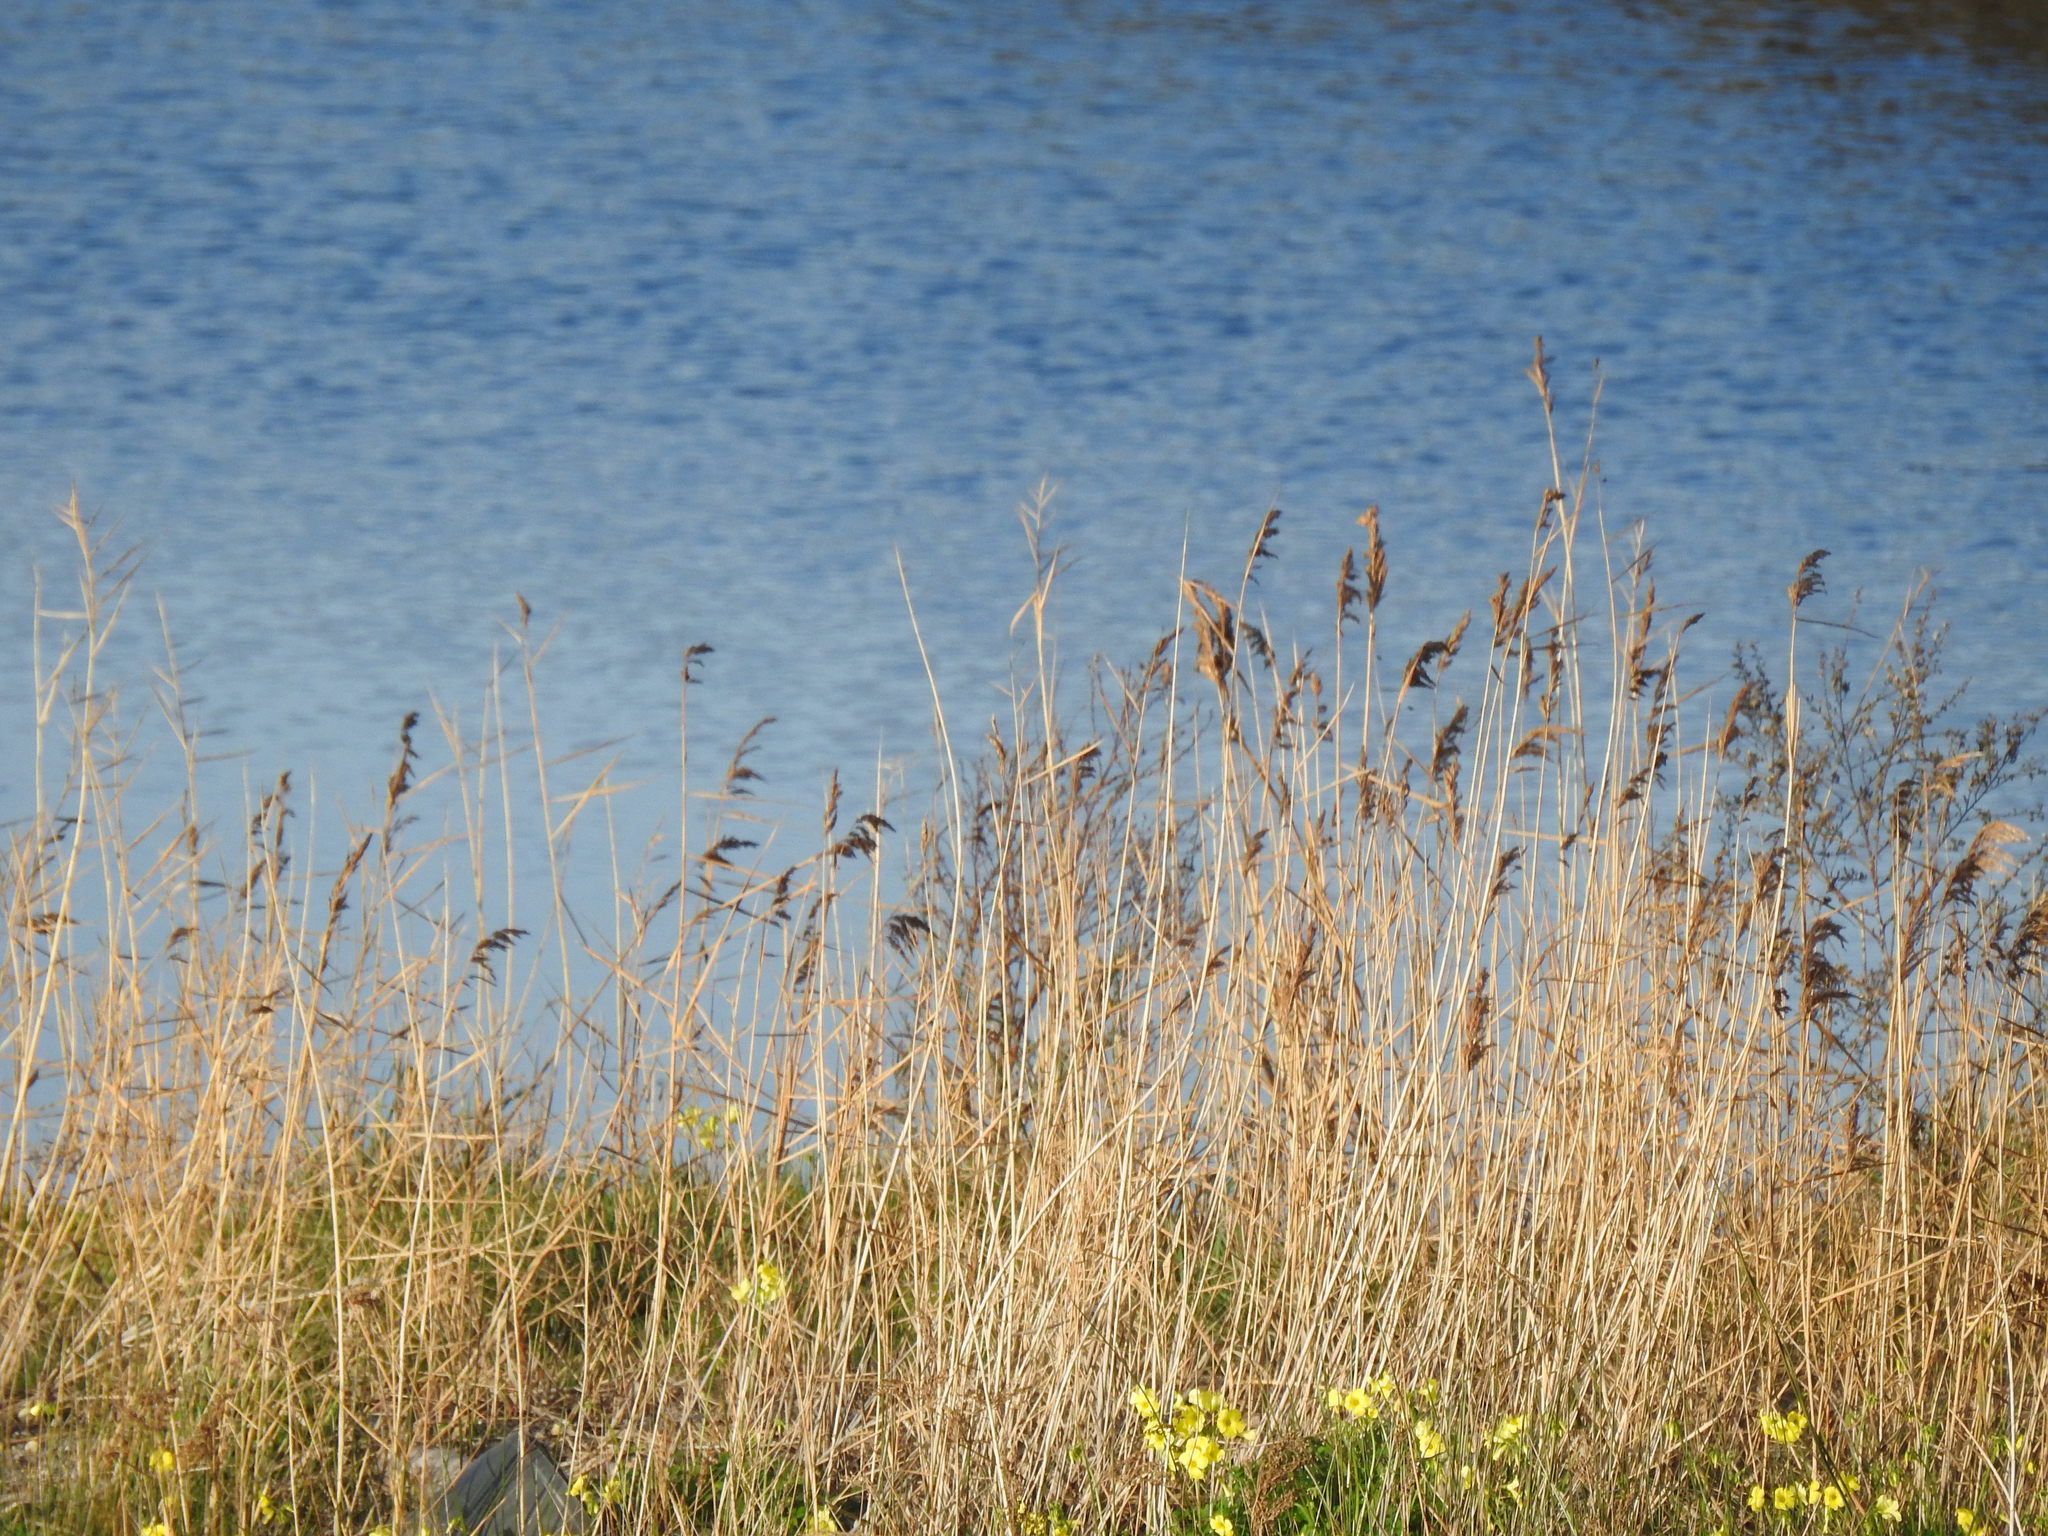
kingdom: Plantae
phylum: Tracheophyta
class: Liliopsida
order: Poales
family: Poaceae
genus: Phragmites
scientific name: Phragmites australis
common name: Common reed
